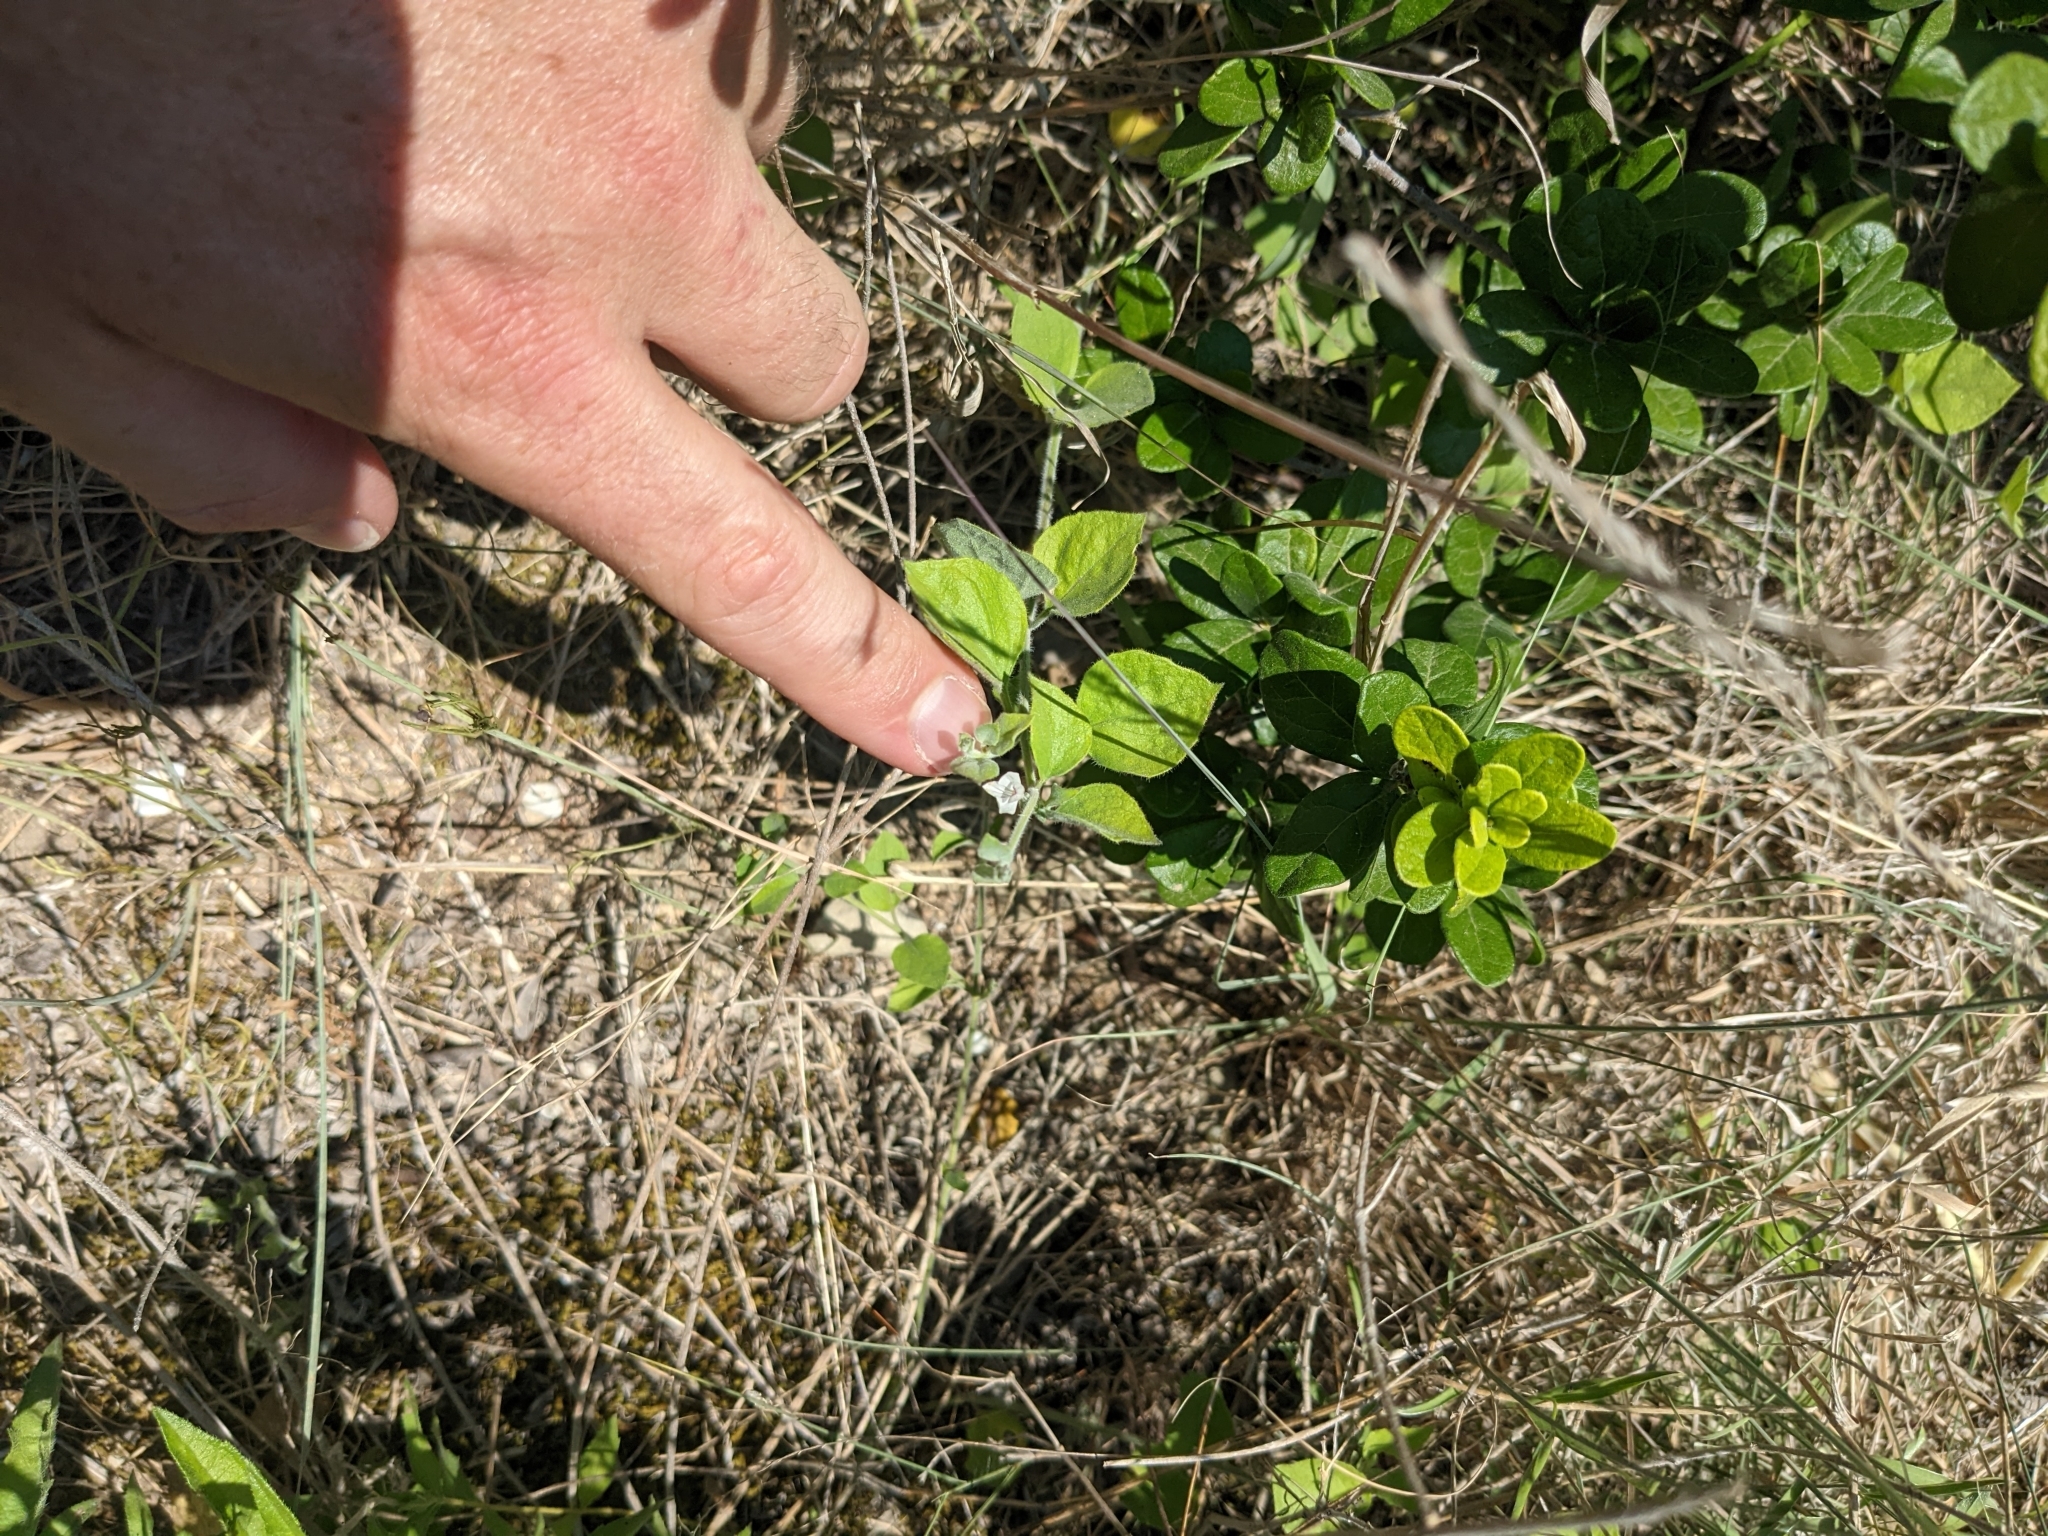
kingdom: Plantae
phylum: Tracheophyta
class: Magnoliopsida
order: Lamiales
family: Acanthaceae
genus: Carlowrightia
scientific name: Carlowrightia torreyana
